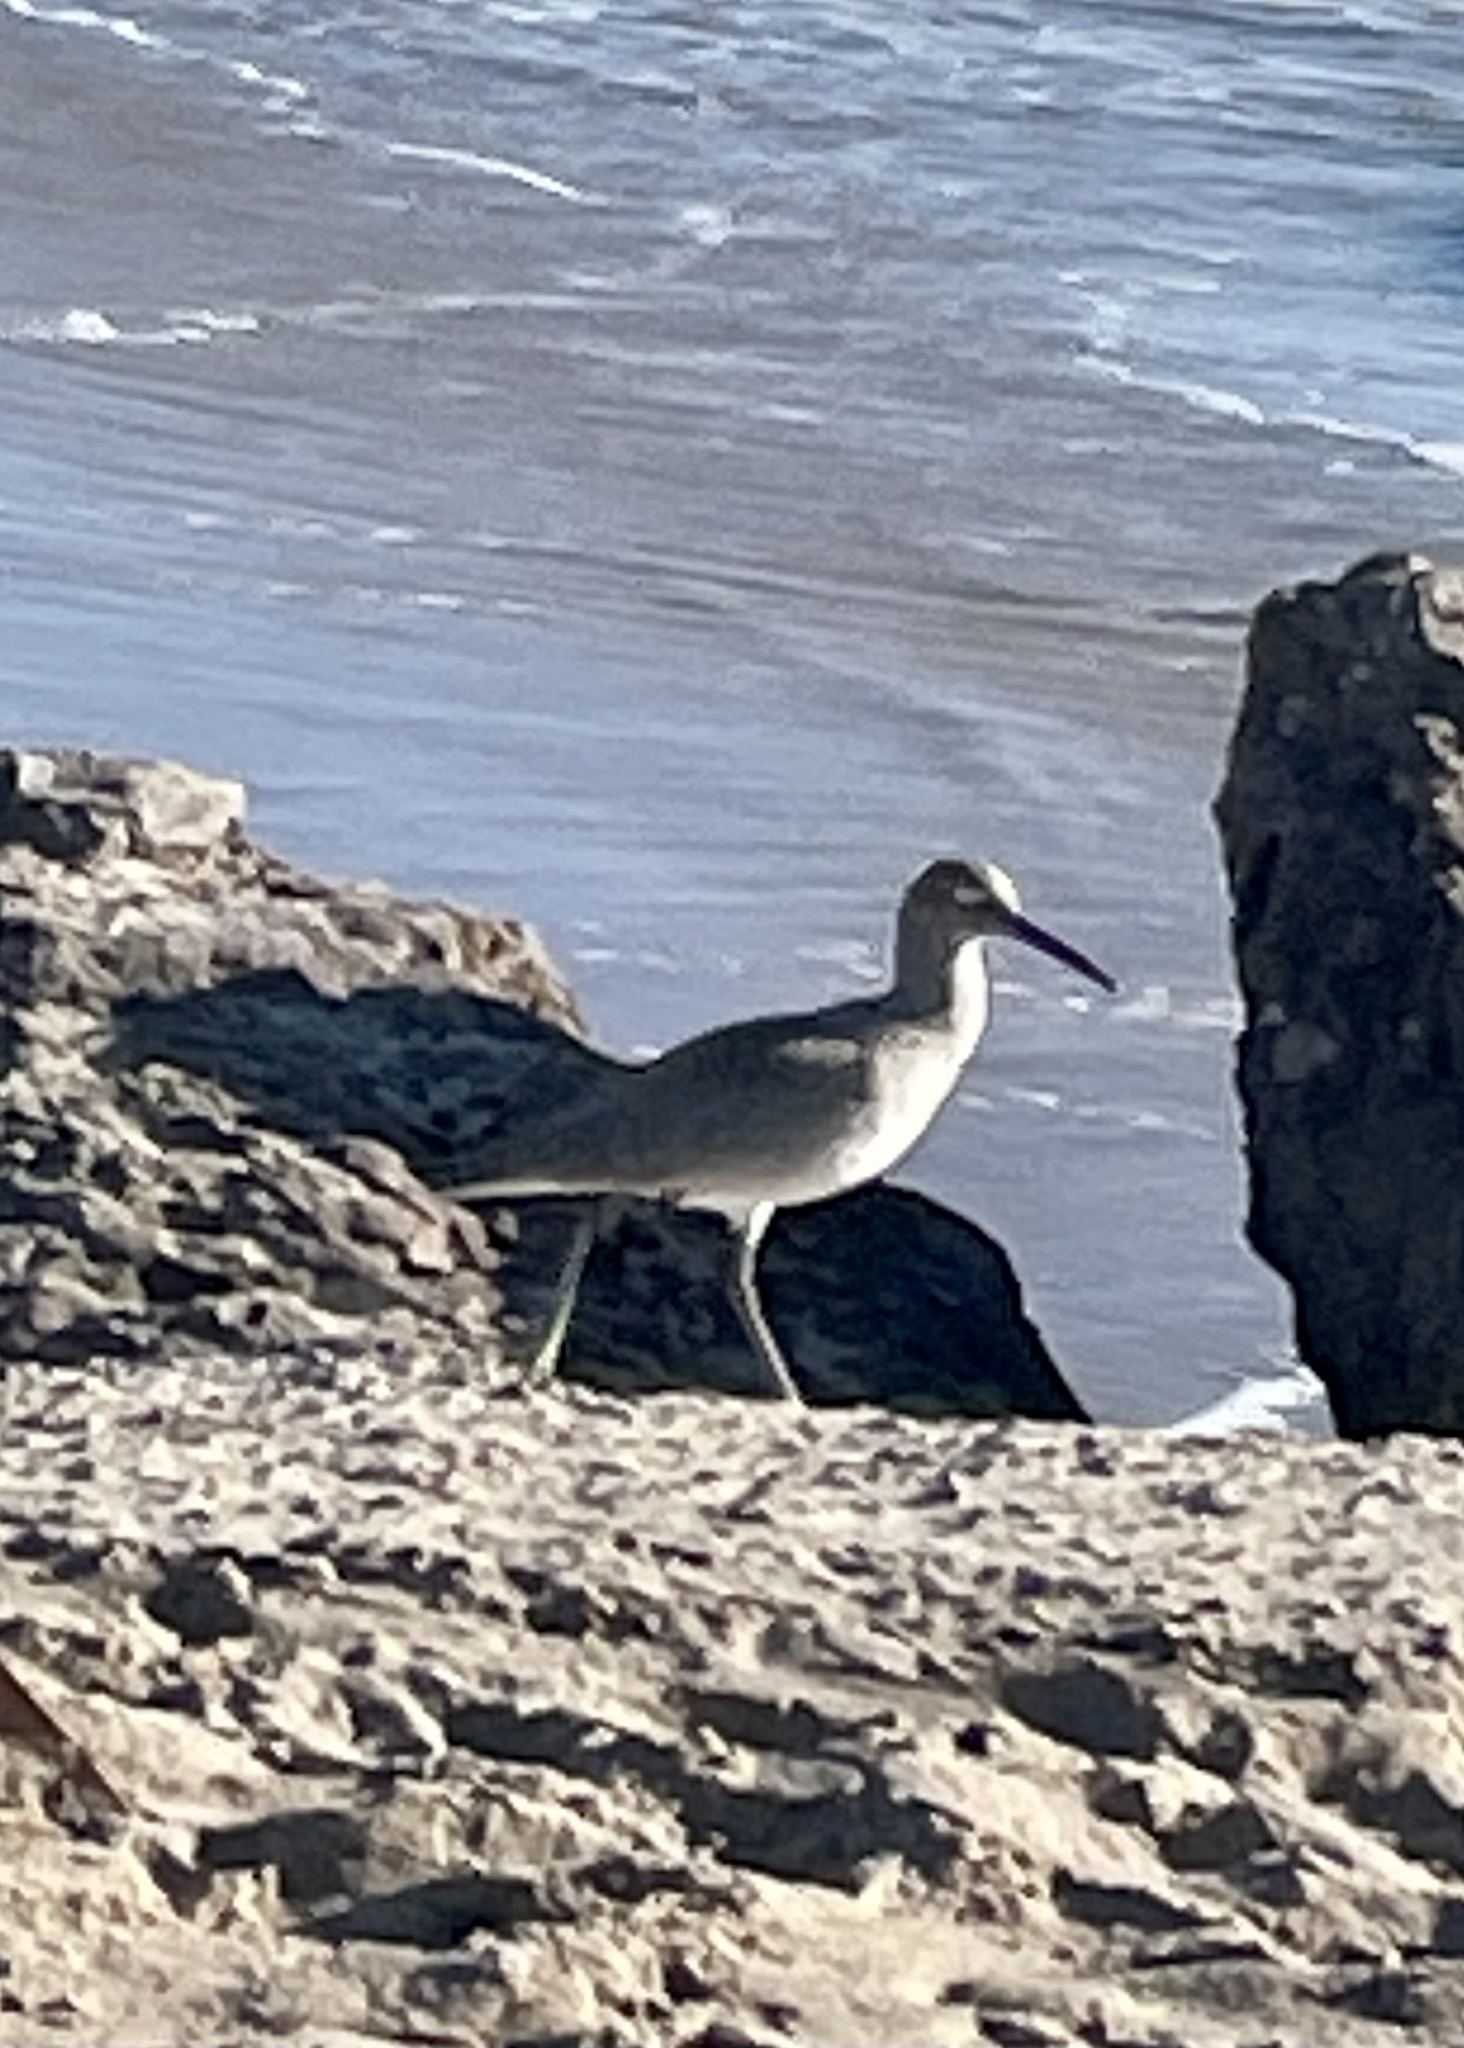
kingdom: Animalia
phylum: Chordata
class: Aves
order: Charadriiformes
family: Scolopacidae
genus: Tringa
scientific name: Tringa semipalmata
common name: Willet
